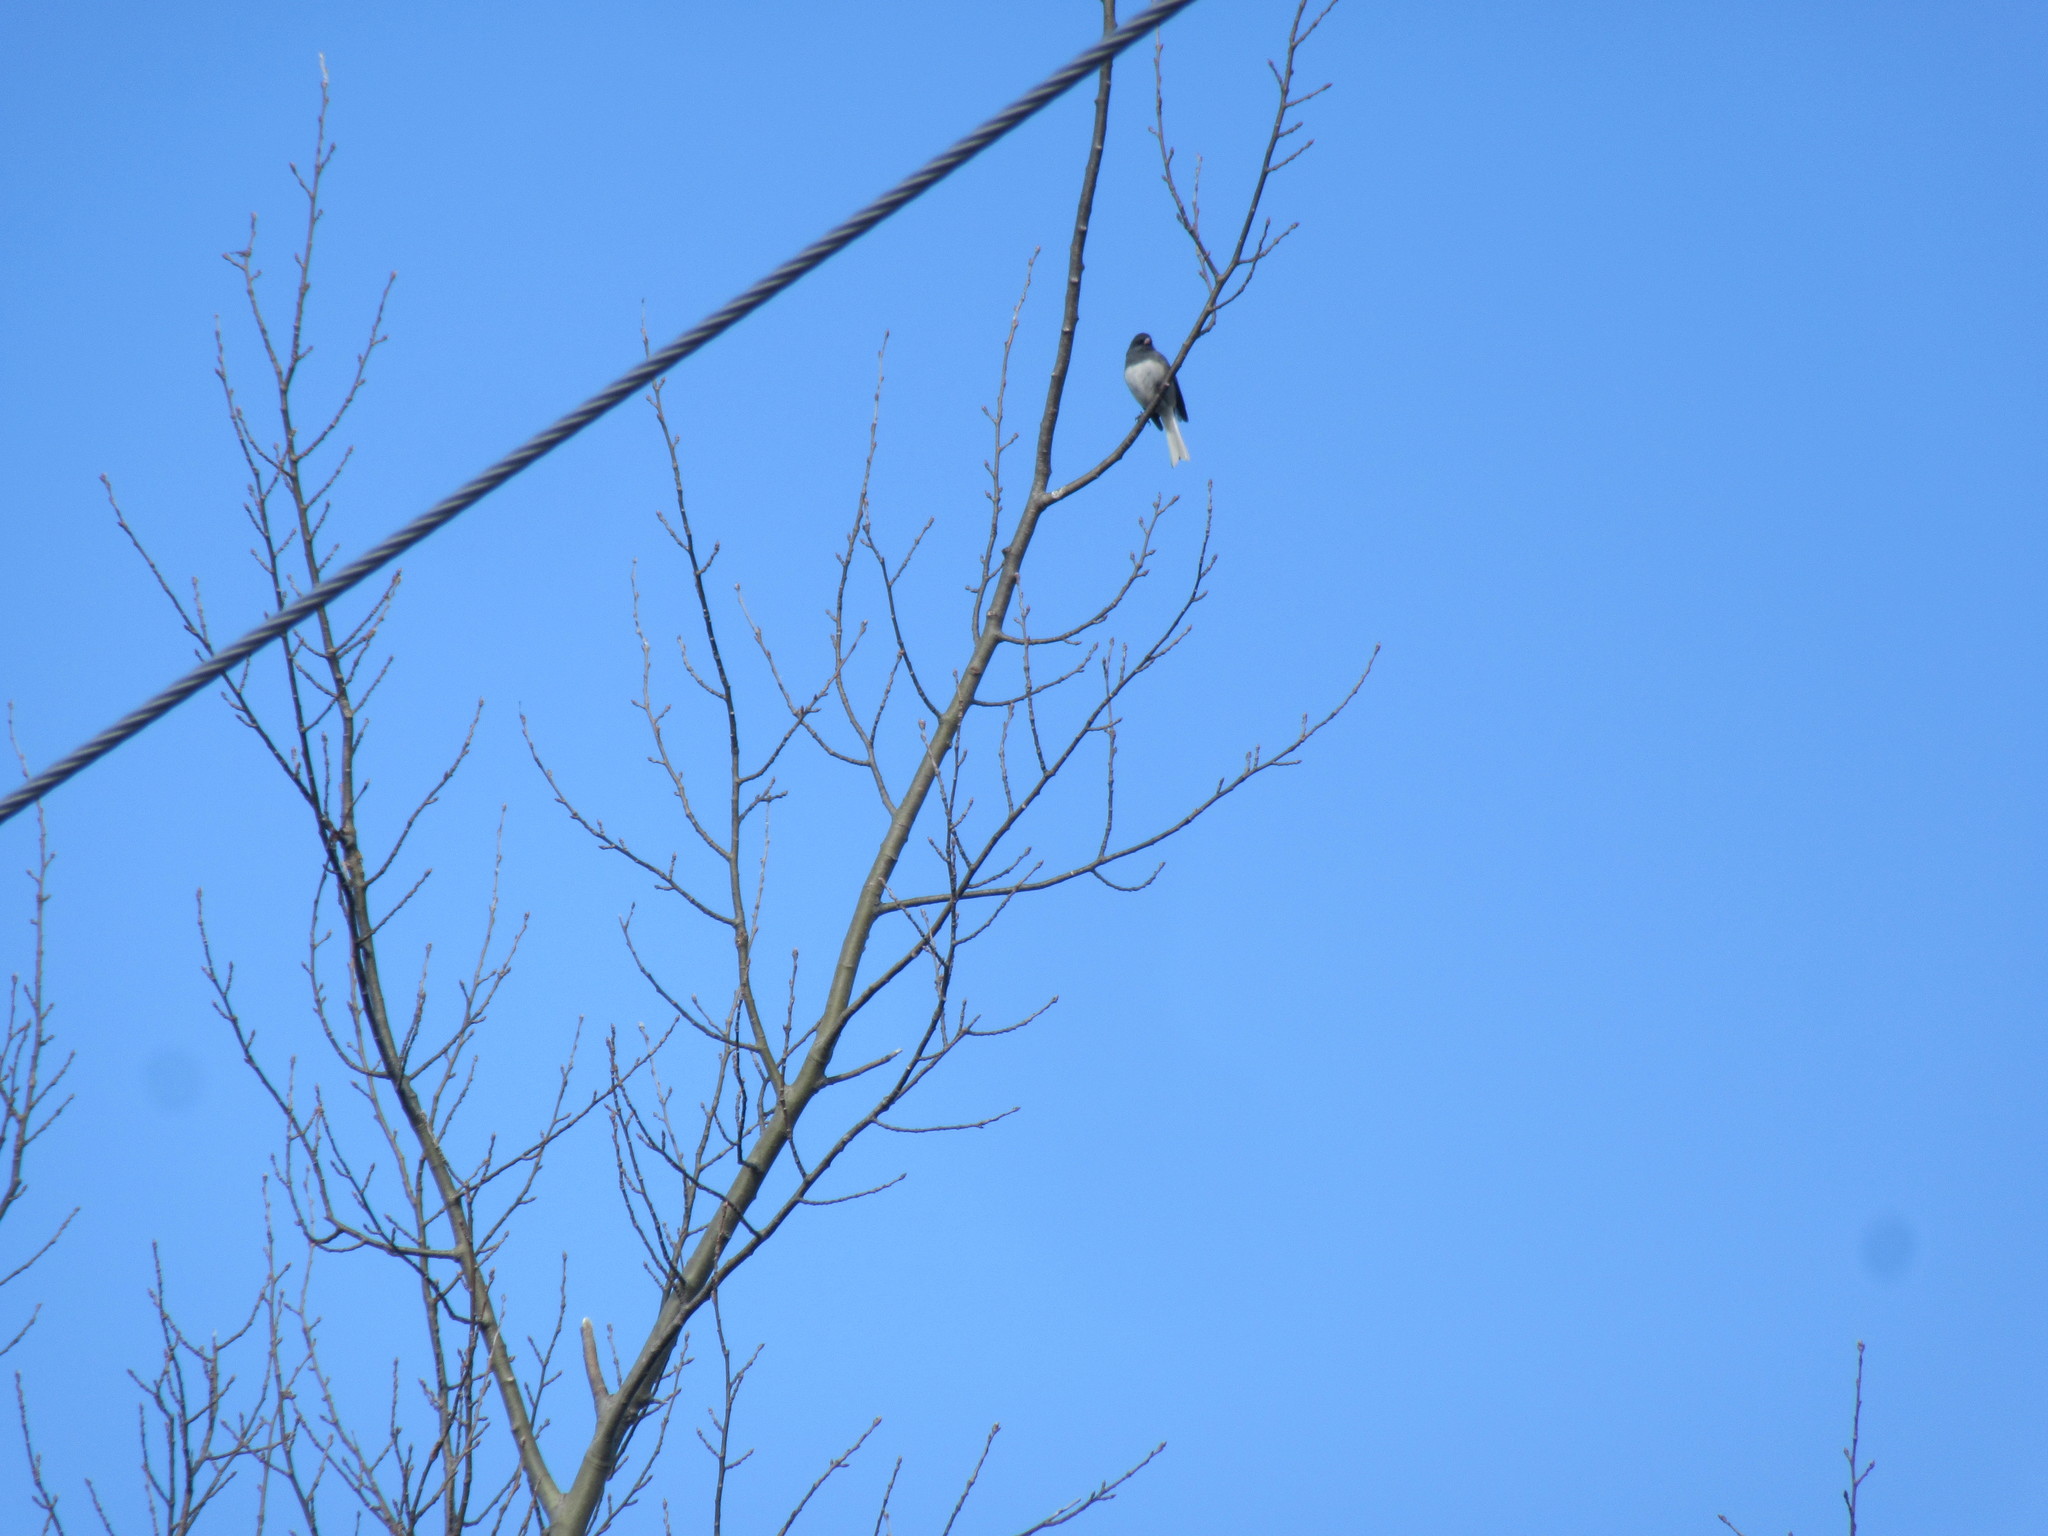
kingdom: Animalia
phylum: Chordata
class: Aves
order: Passeriformes
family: Passerellidae
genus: Junco
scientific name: Junco hyemalis
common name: Dark-eyed junco
